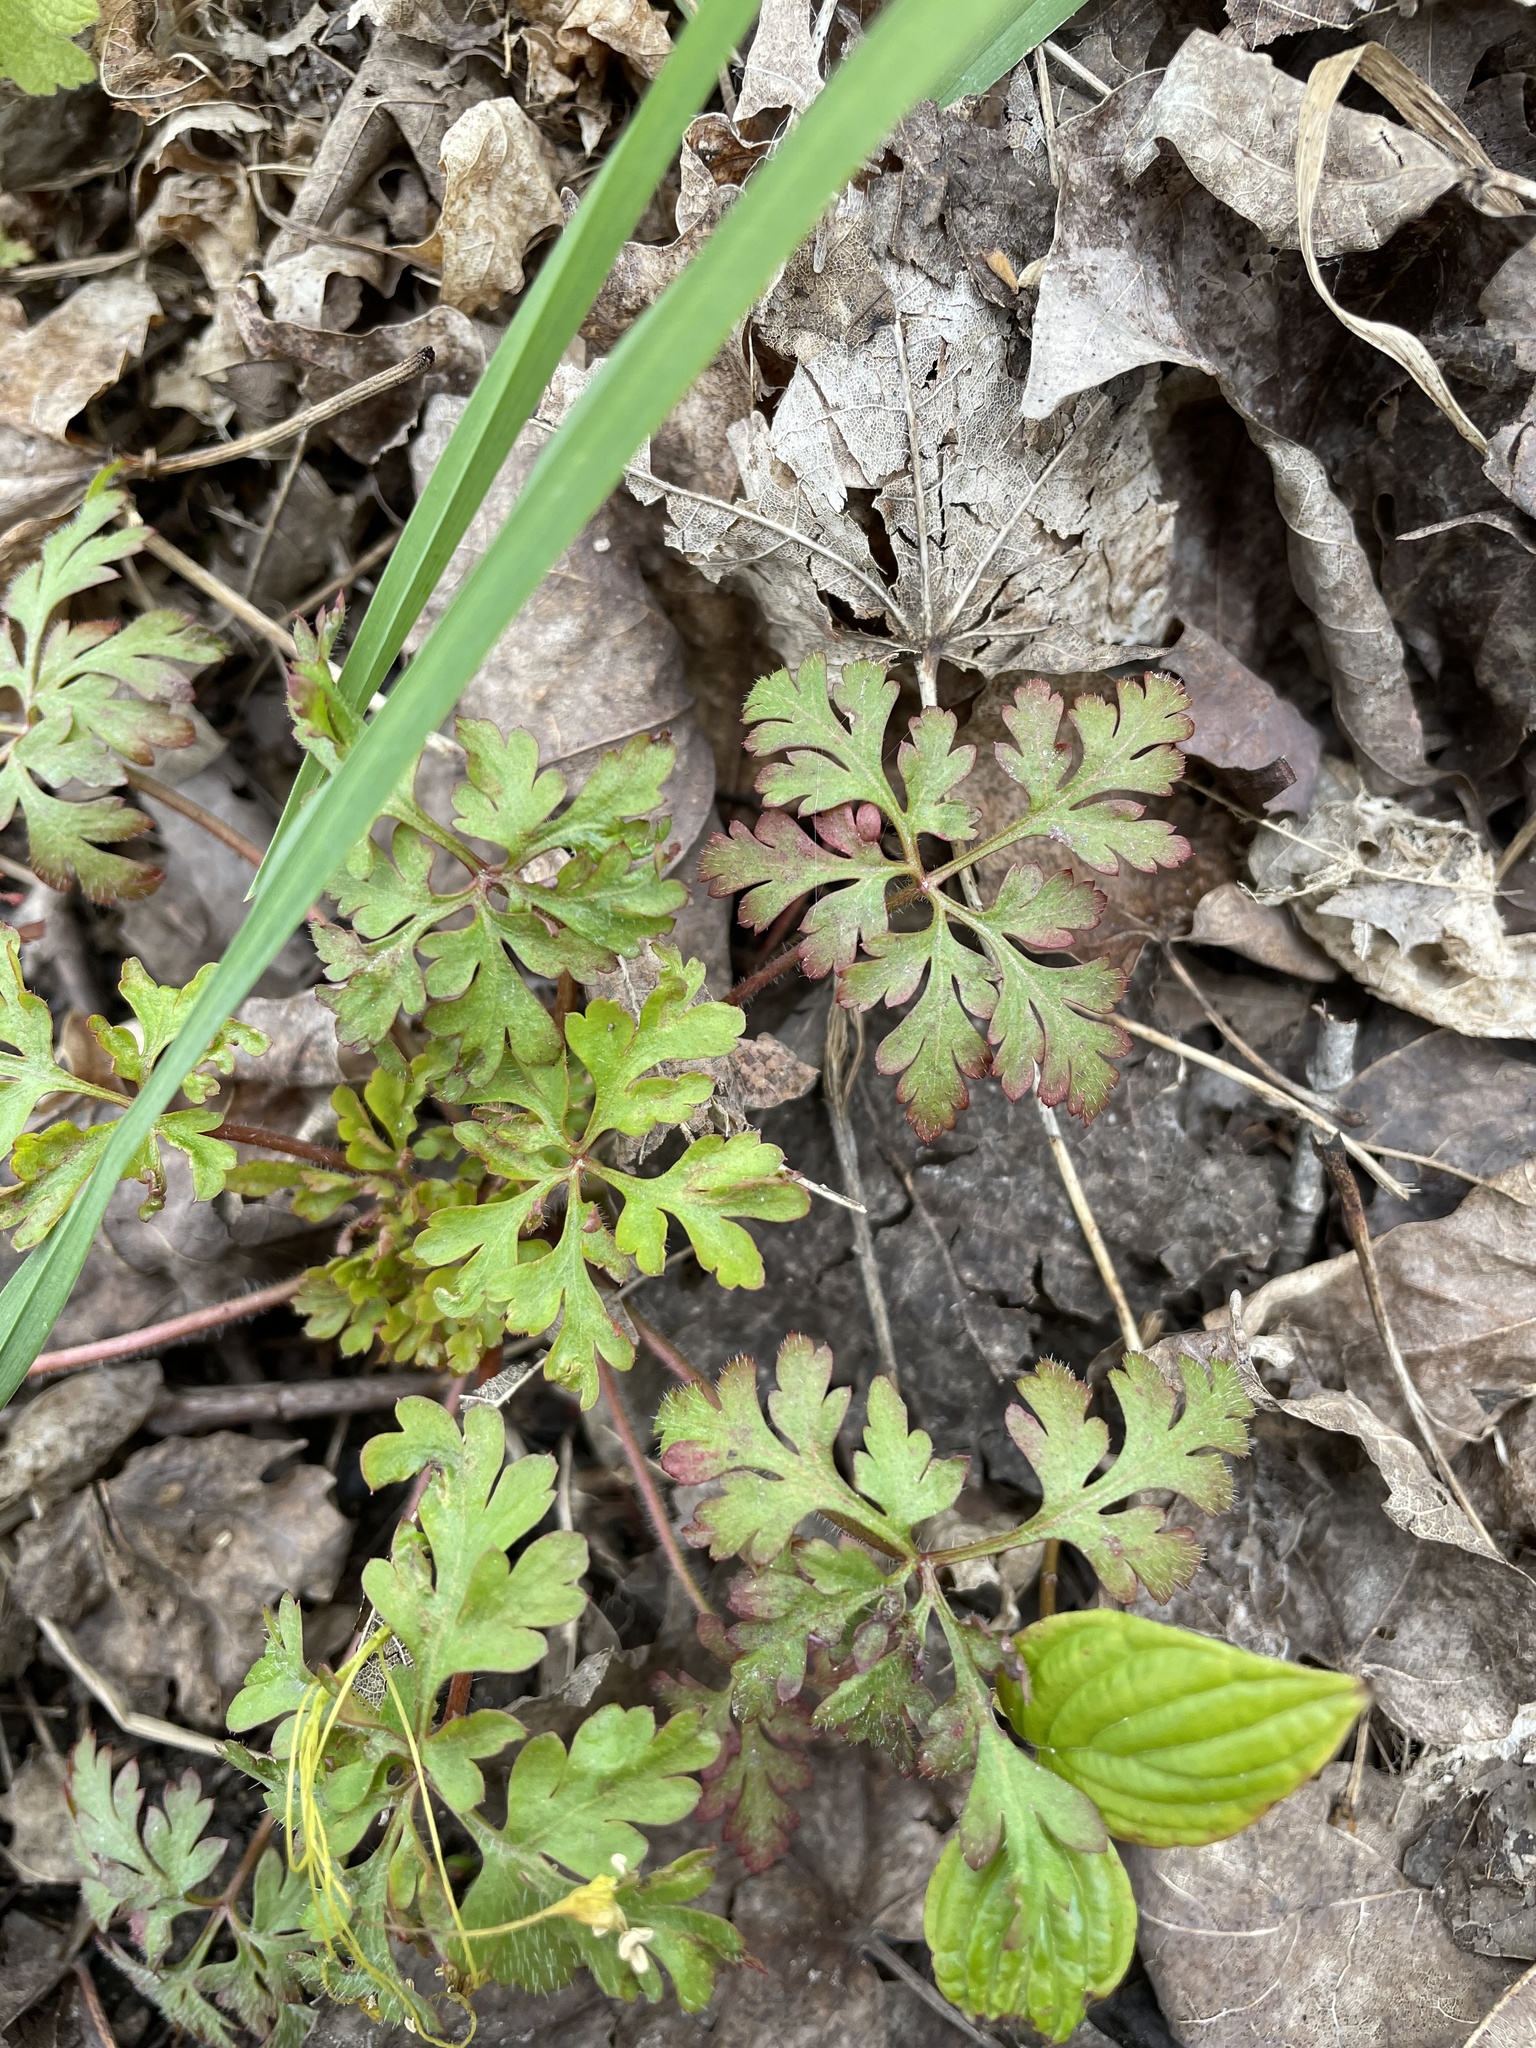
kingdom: Plantae
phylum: Tracheophyta
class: Magnoliopsida
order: Geraniales
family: Geraniaceae
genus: Geranium
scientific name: Geranium robertianum
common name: Herb-robert
